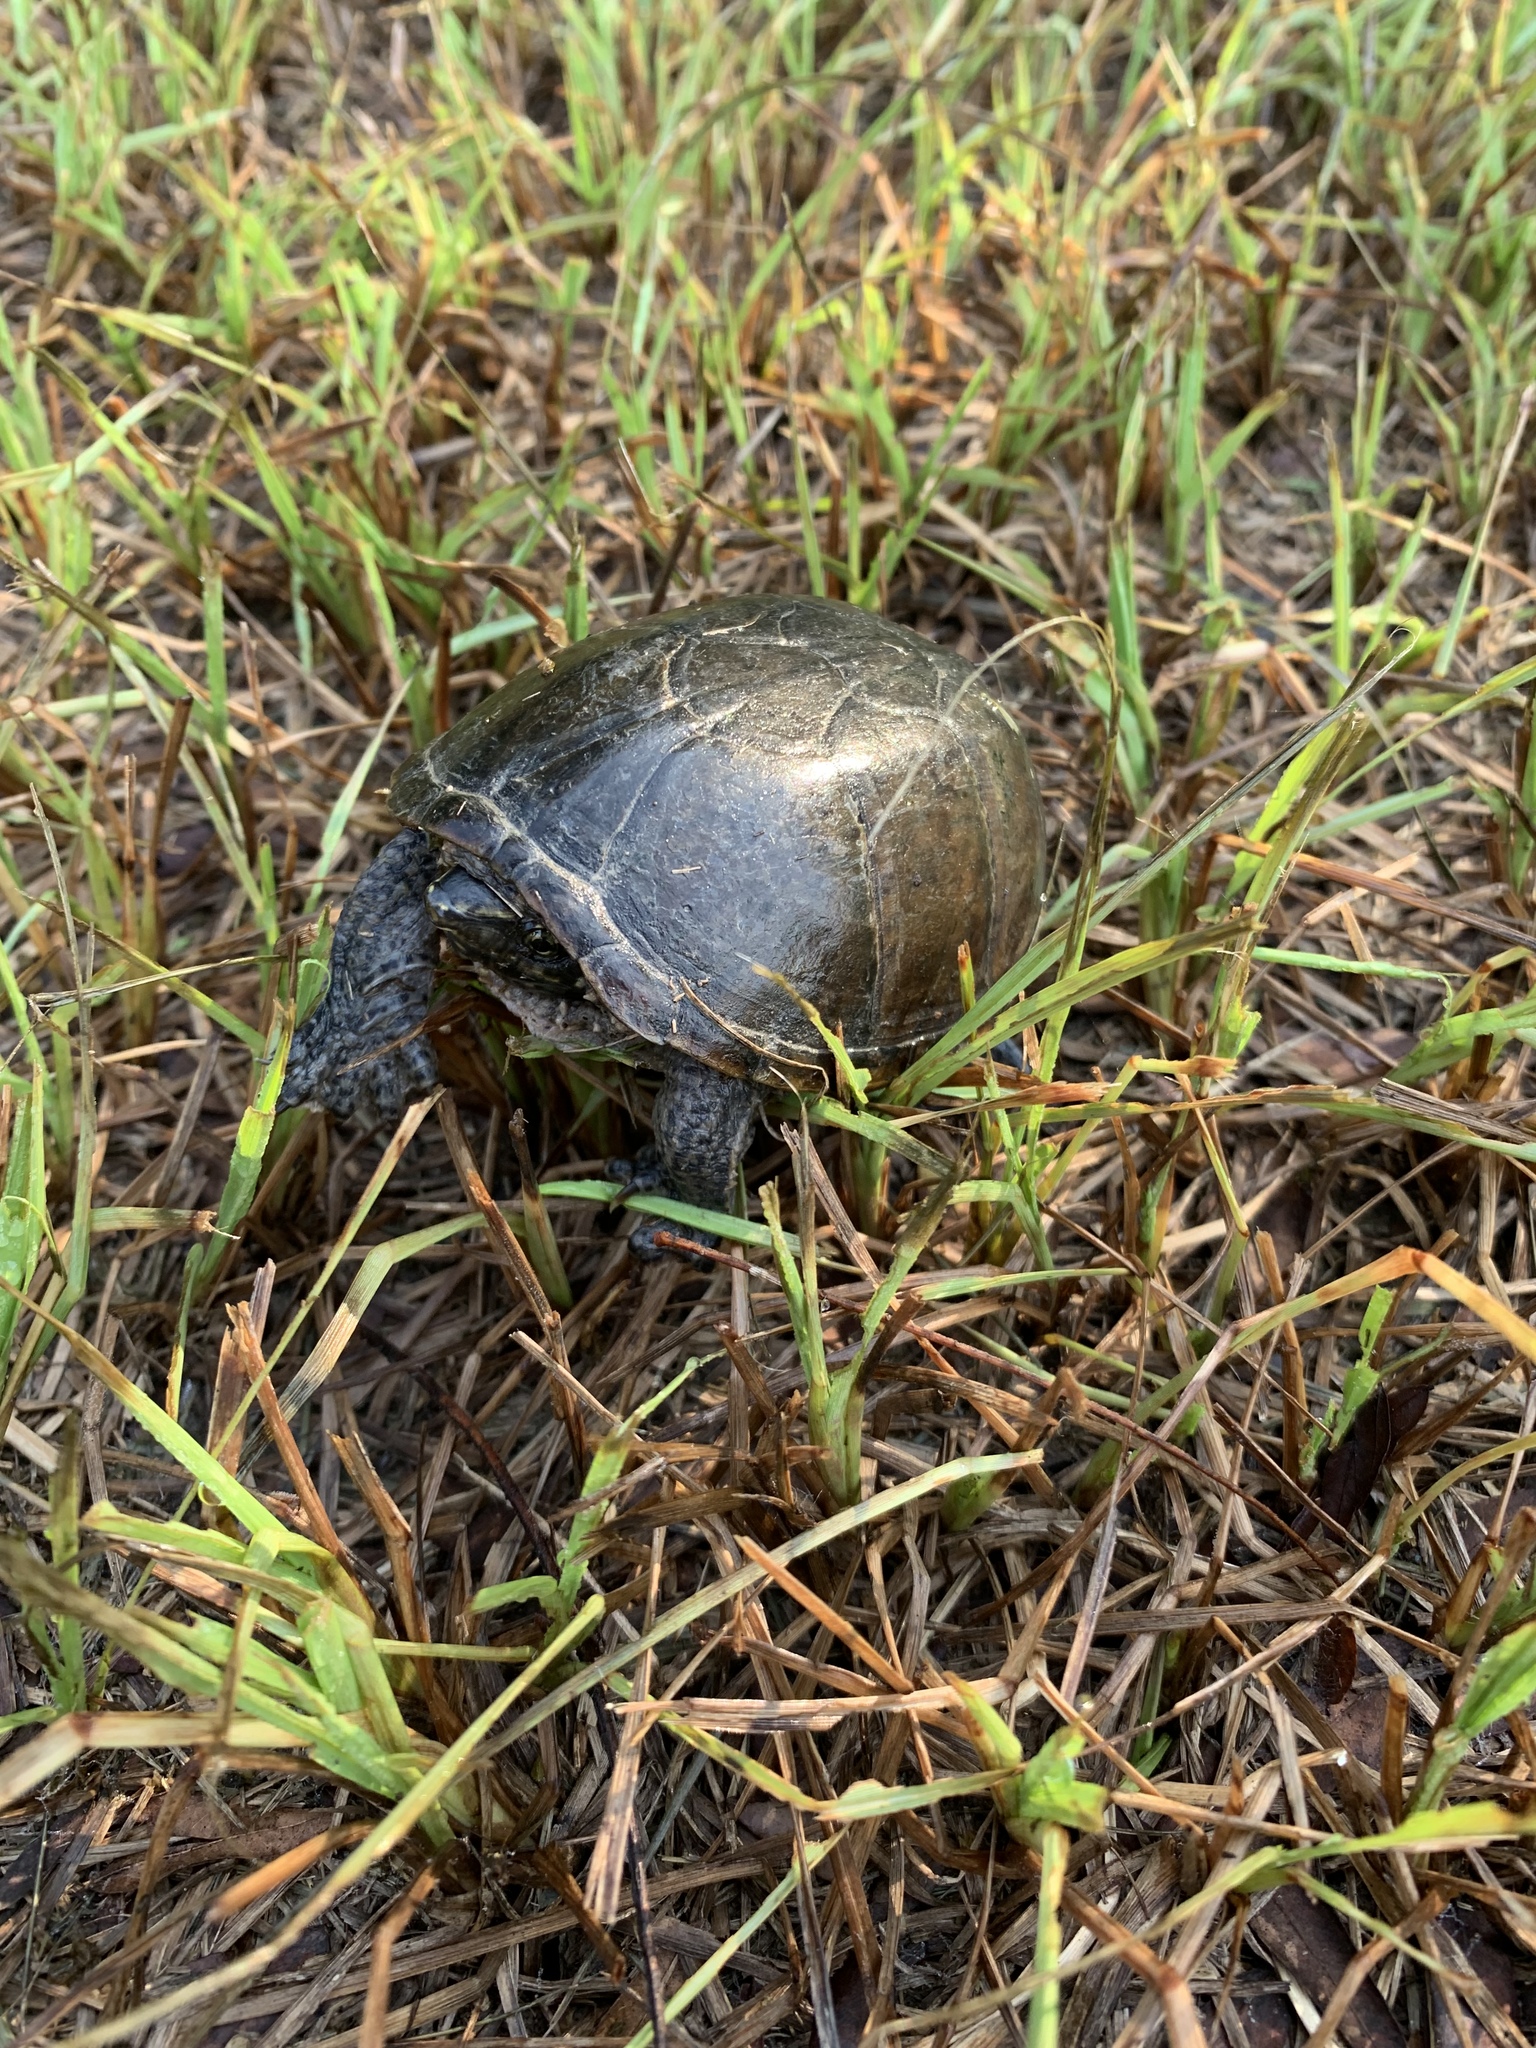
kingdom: Animalia
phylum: Chordata
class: Testudines
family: Kinosternidae
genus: Sternotherus
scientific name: Sternotherus odoratus
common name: Common musk turtle
